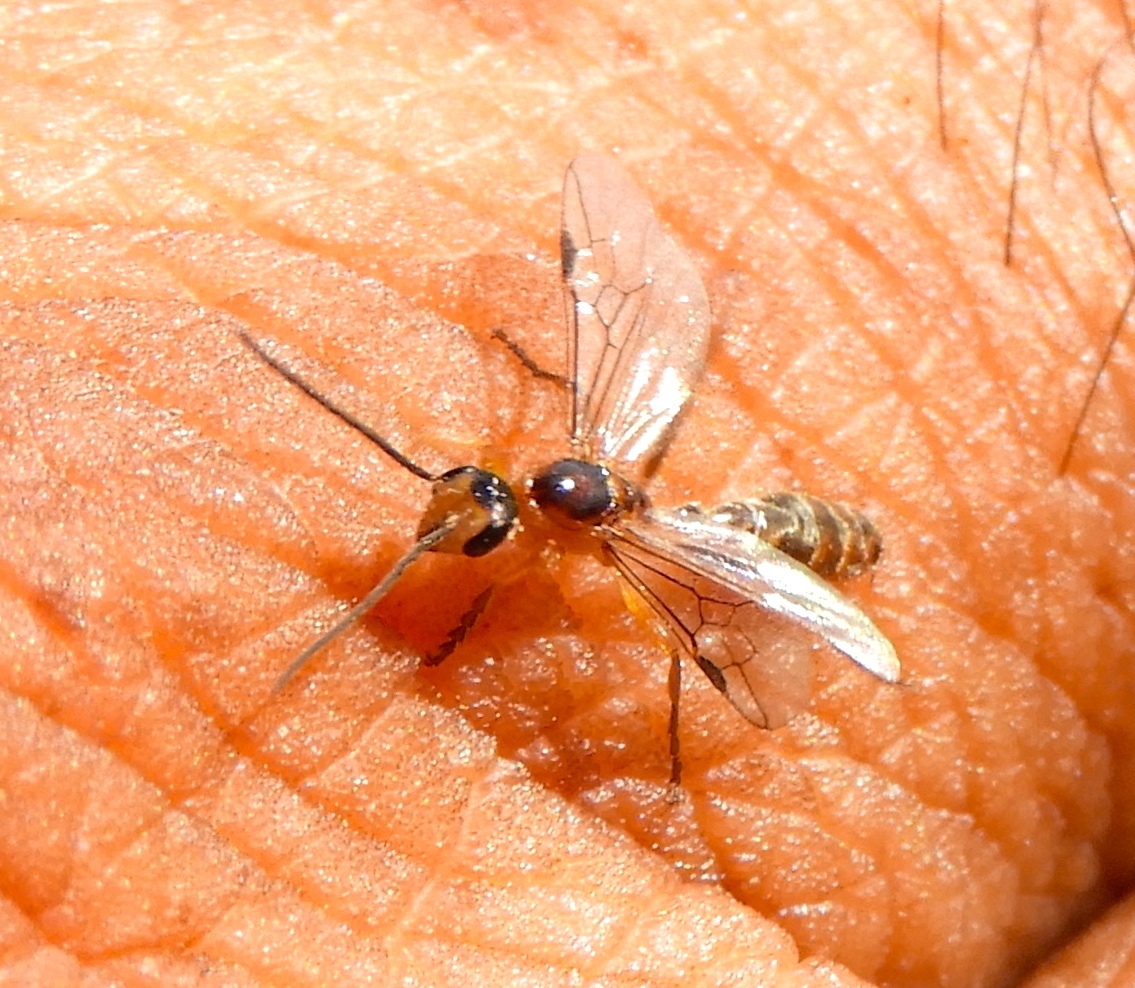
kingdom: Animalia
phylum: Arthropoda
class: Insecta
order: Hymenoptera
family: Formicidae
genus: Pseudomyrmex
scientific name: Pseudomyrmex
